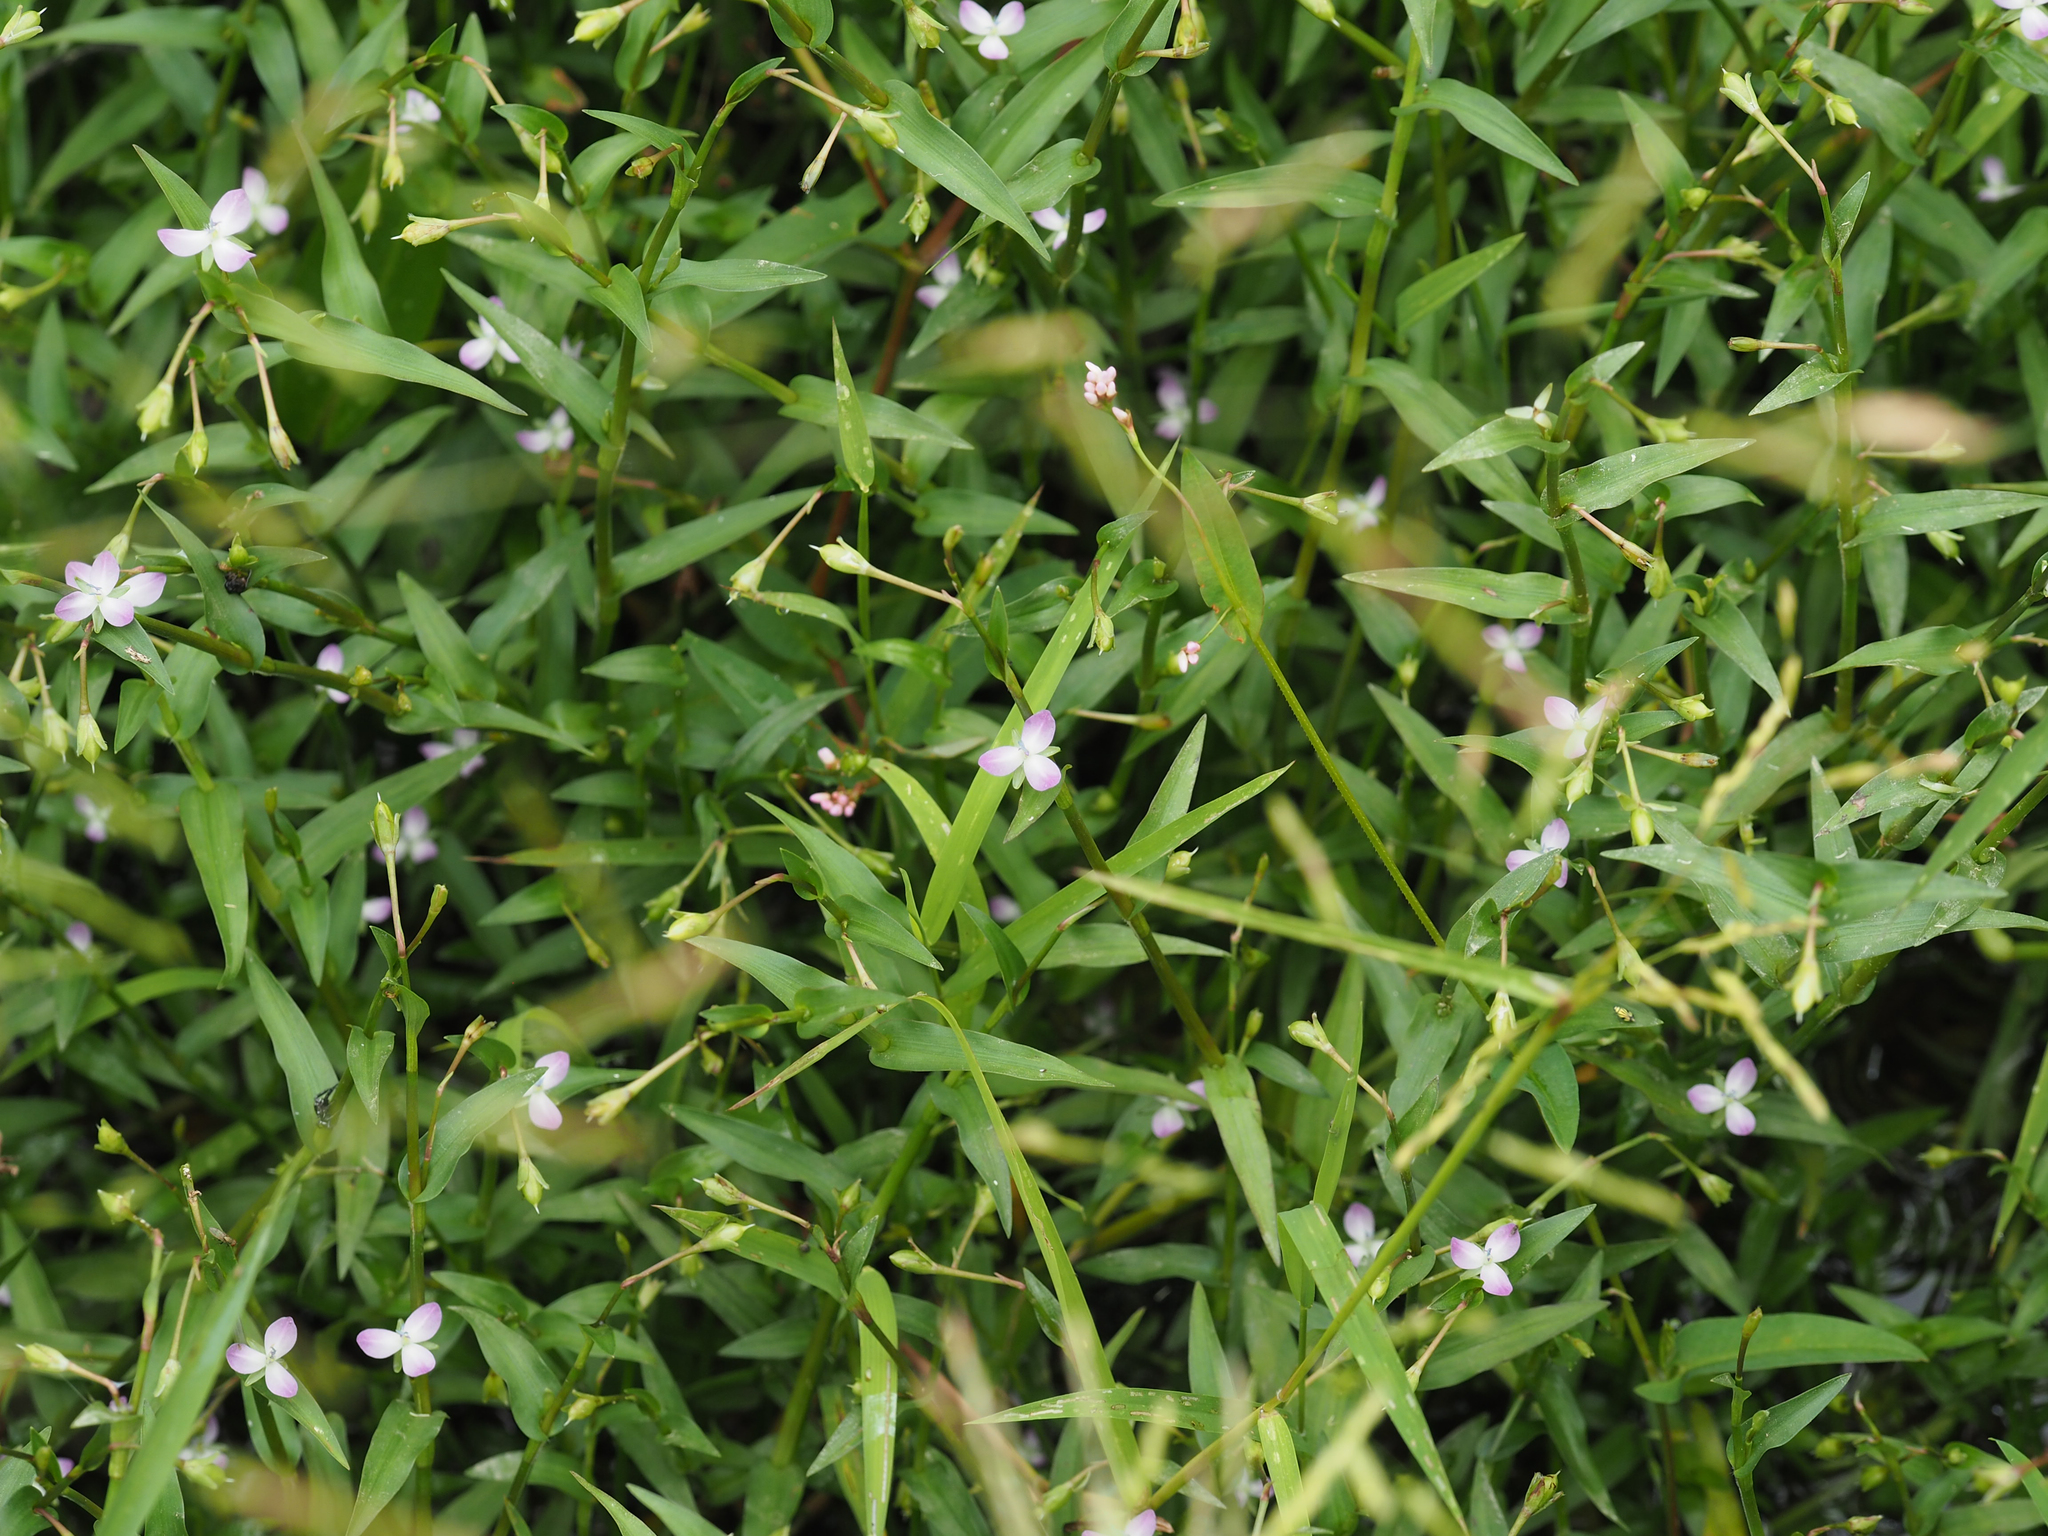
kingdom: Plantae
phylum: Tracheophyta
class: Liliopsida
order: Commelinales
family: Commelinaceae
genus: Murdannia
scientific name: Murdannia keisak
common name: Wartremoving herb
